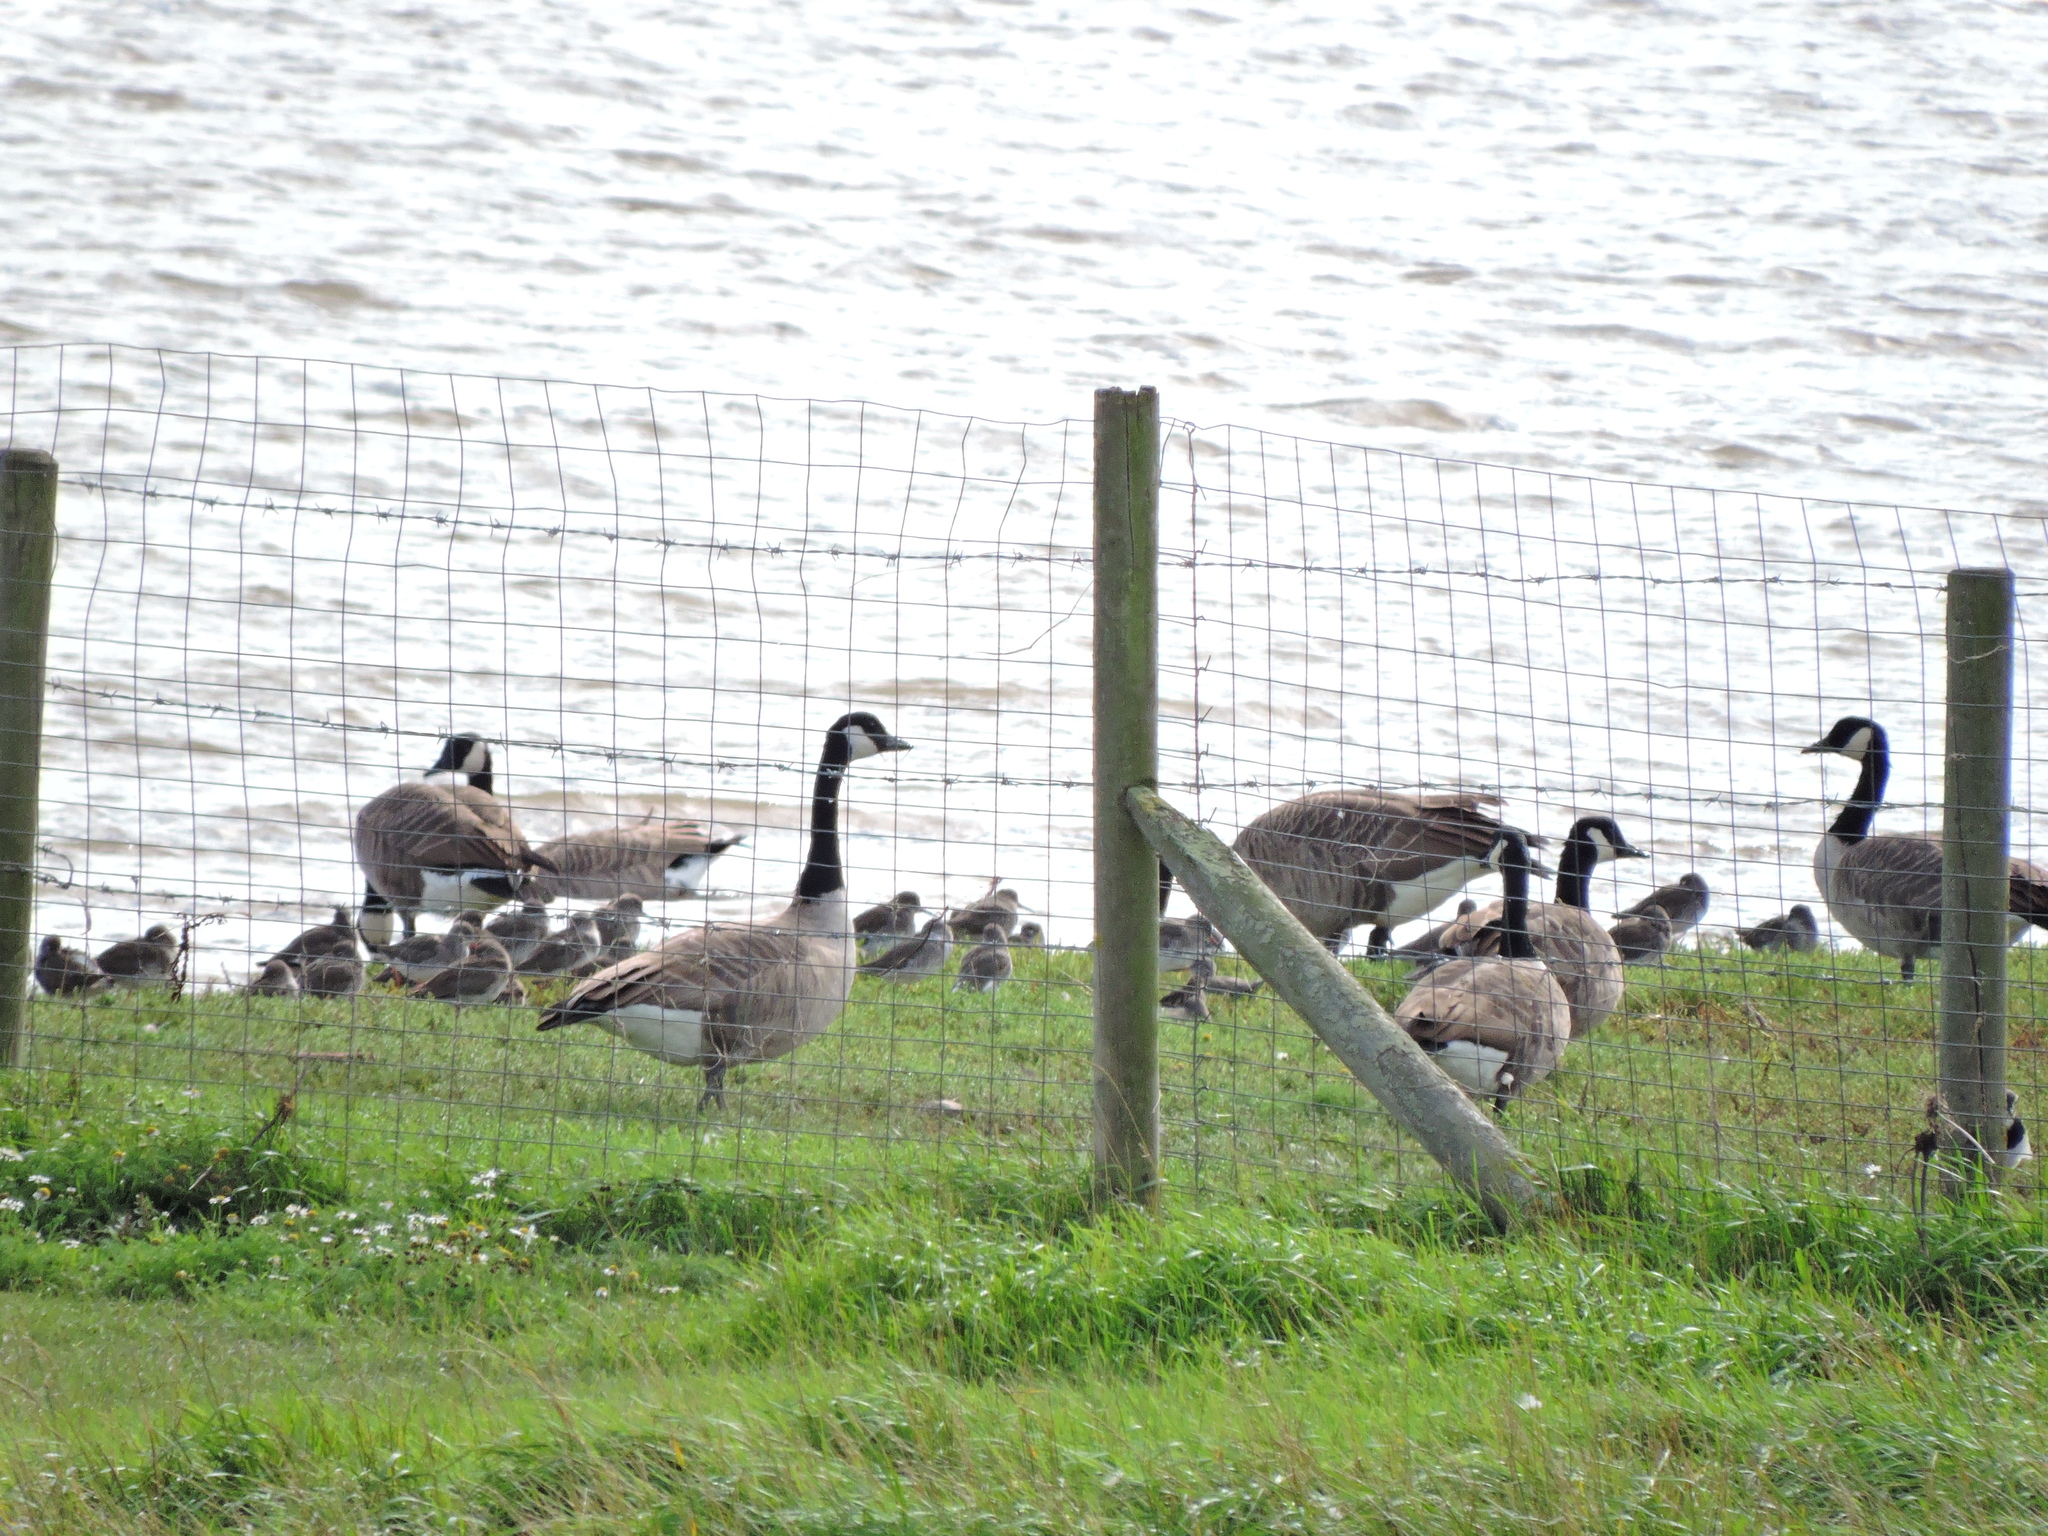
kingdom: Animalia
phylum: Chordata
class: Aves
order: Anseriformes
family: Anatidae
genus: Branta
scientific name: Branta canadensis
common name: Canada goose
